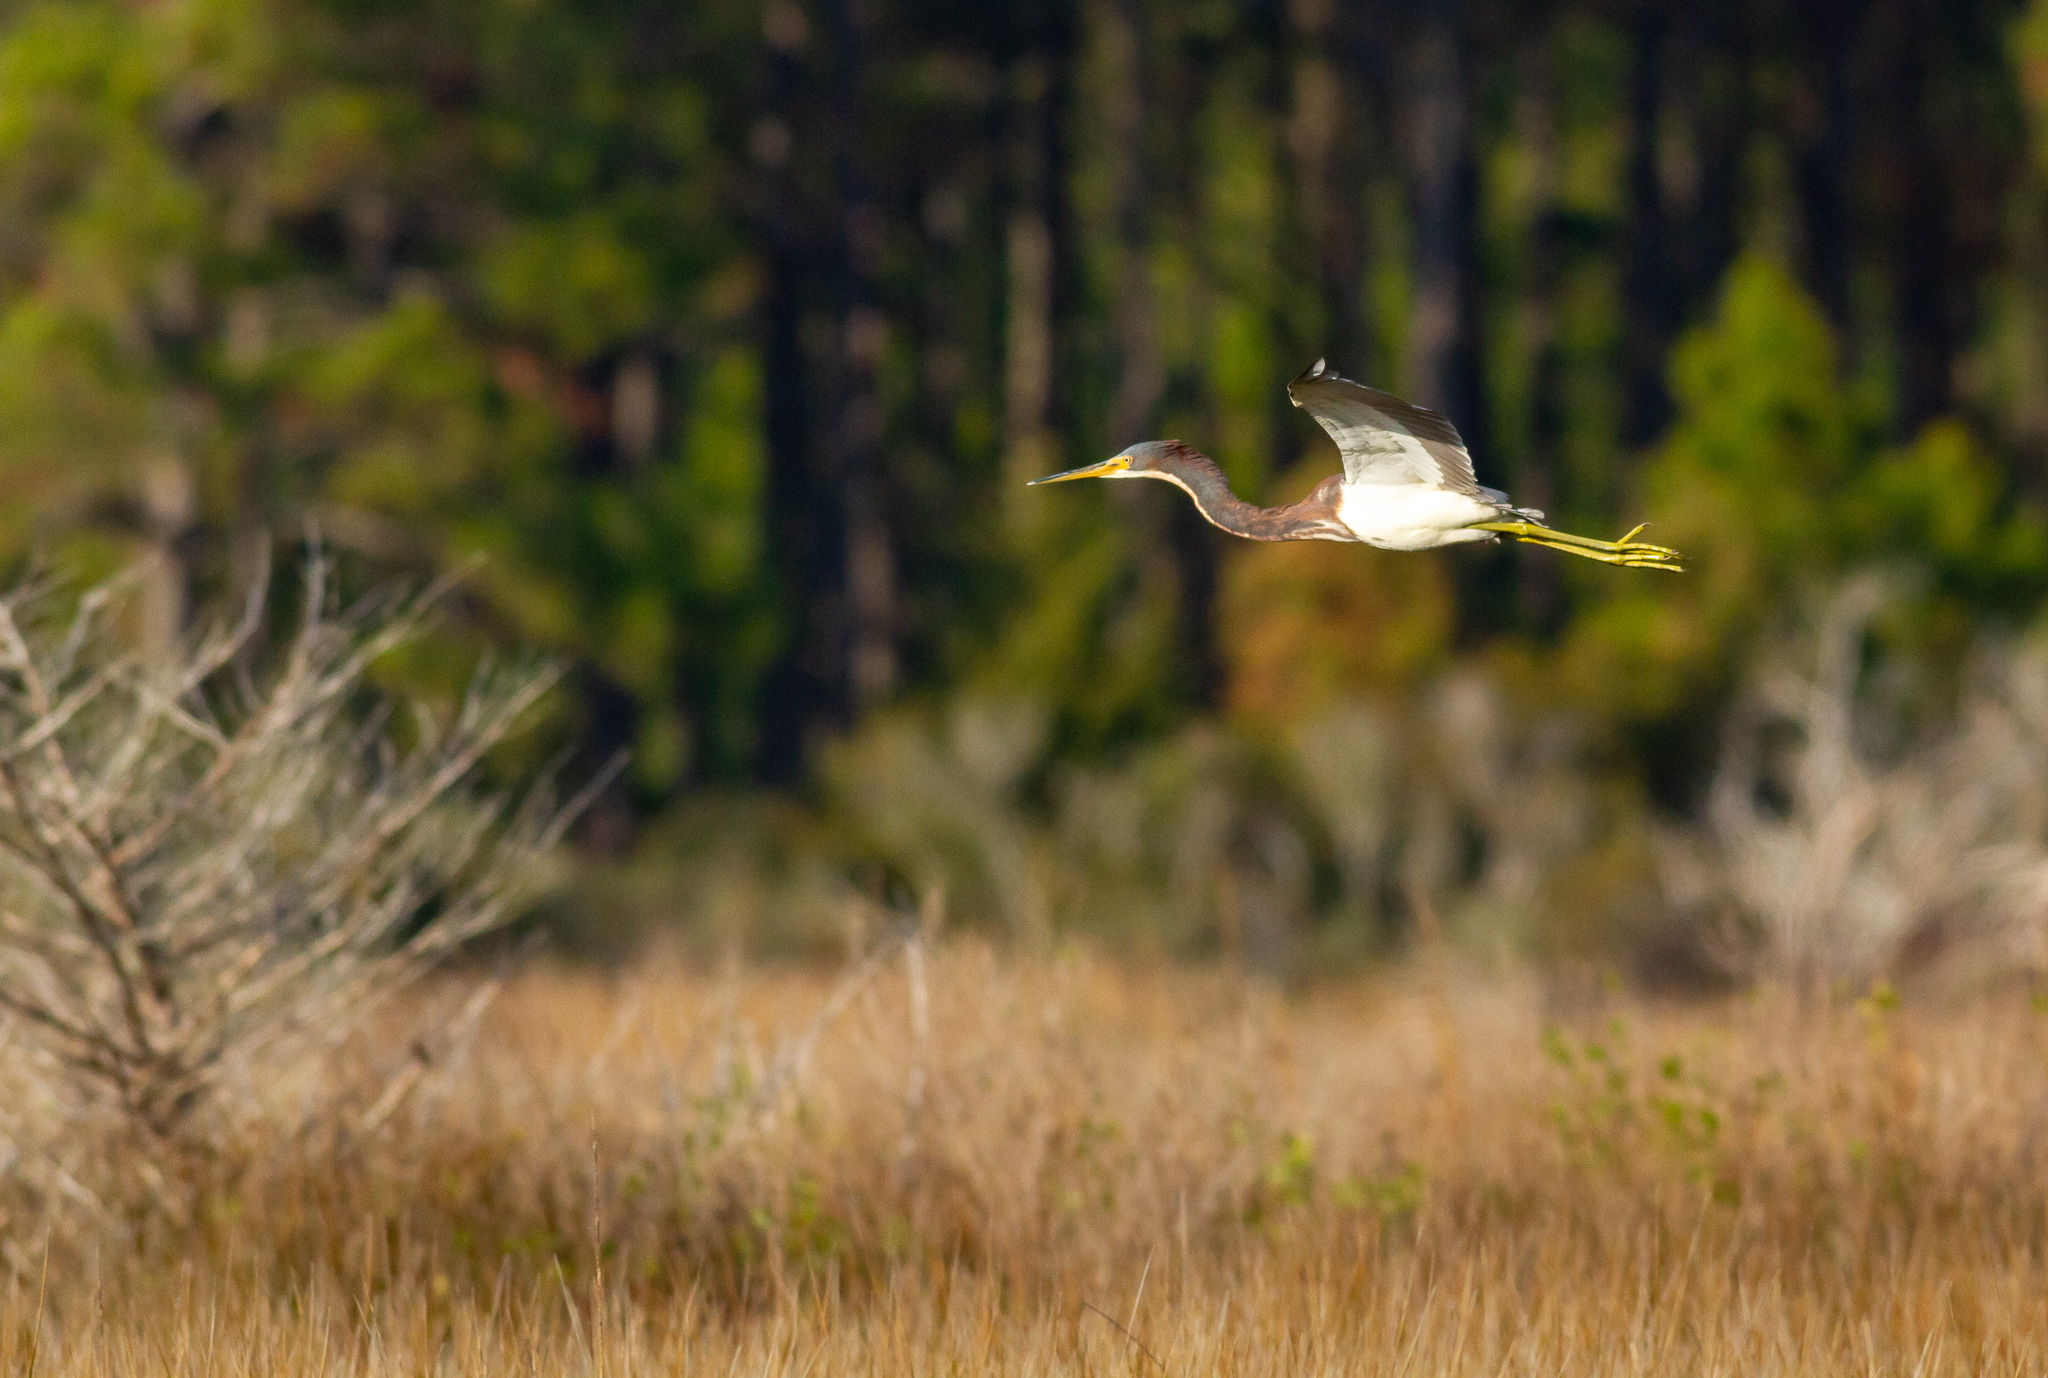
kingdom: Animalia
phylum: Chordata
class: Aves
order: Pelecaniformes
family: Ardeidae
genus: Egretta
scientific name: Egretta tricolor
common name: Tricolored heron
